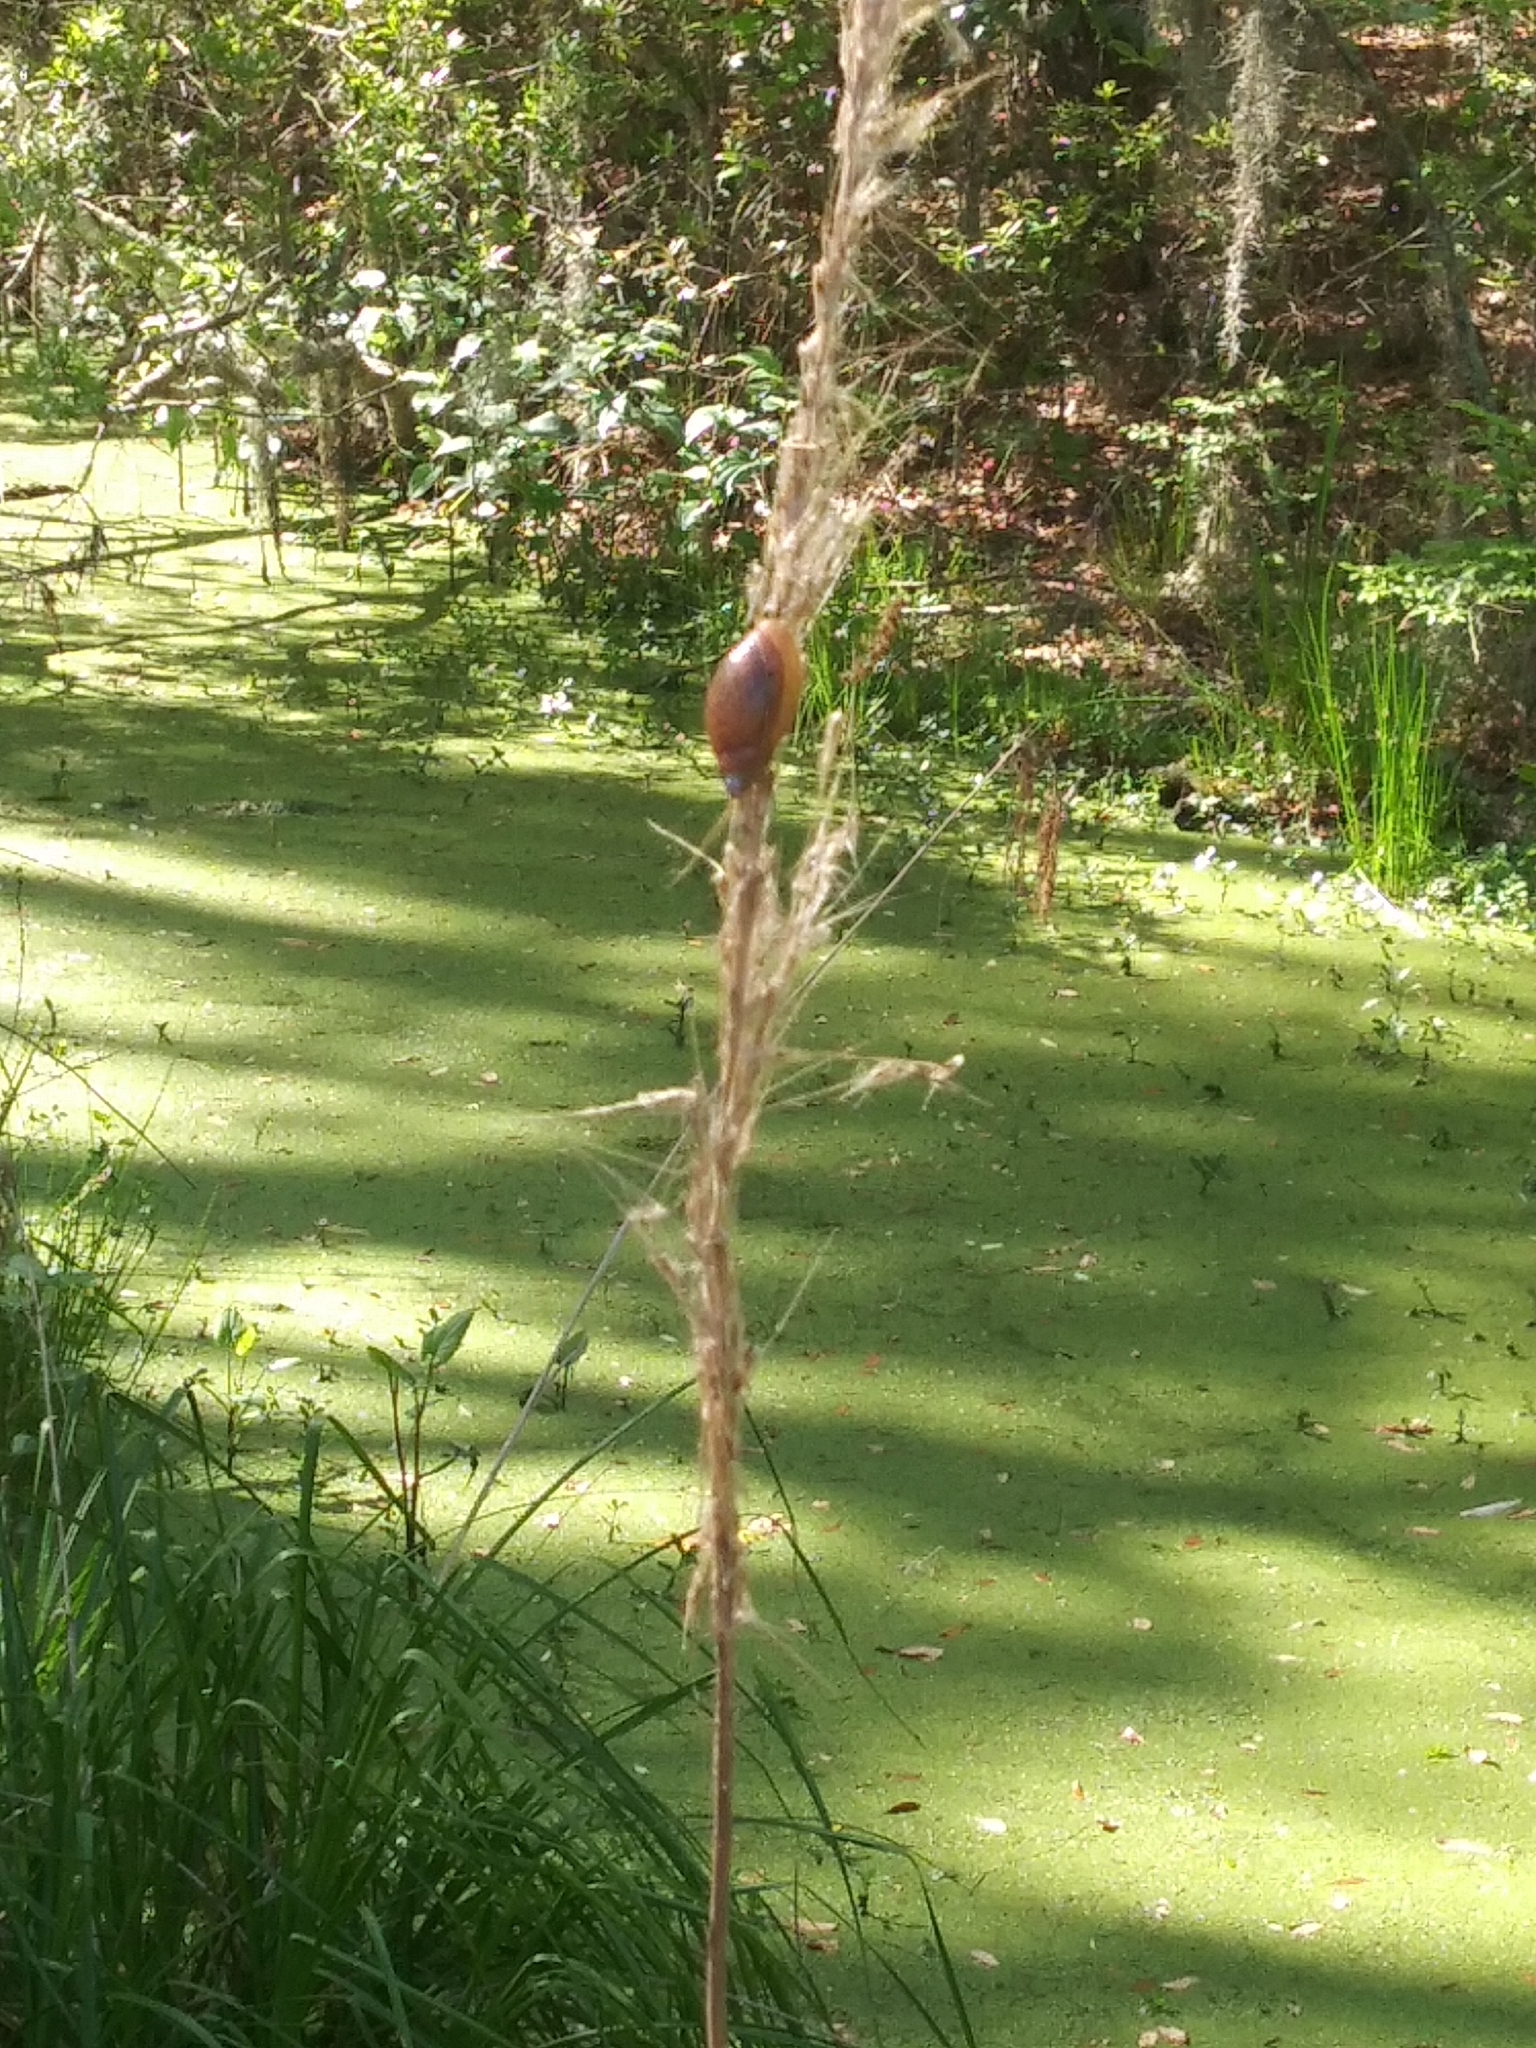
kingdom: Animalia
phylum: Mollusca
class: Gastropoda
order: Stylommatophora
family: Spiraxidae
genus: Euglandina
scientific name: Euglandina rosea
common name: Rosy wolfsnail
